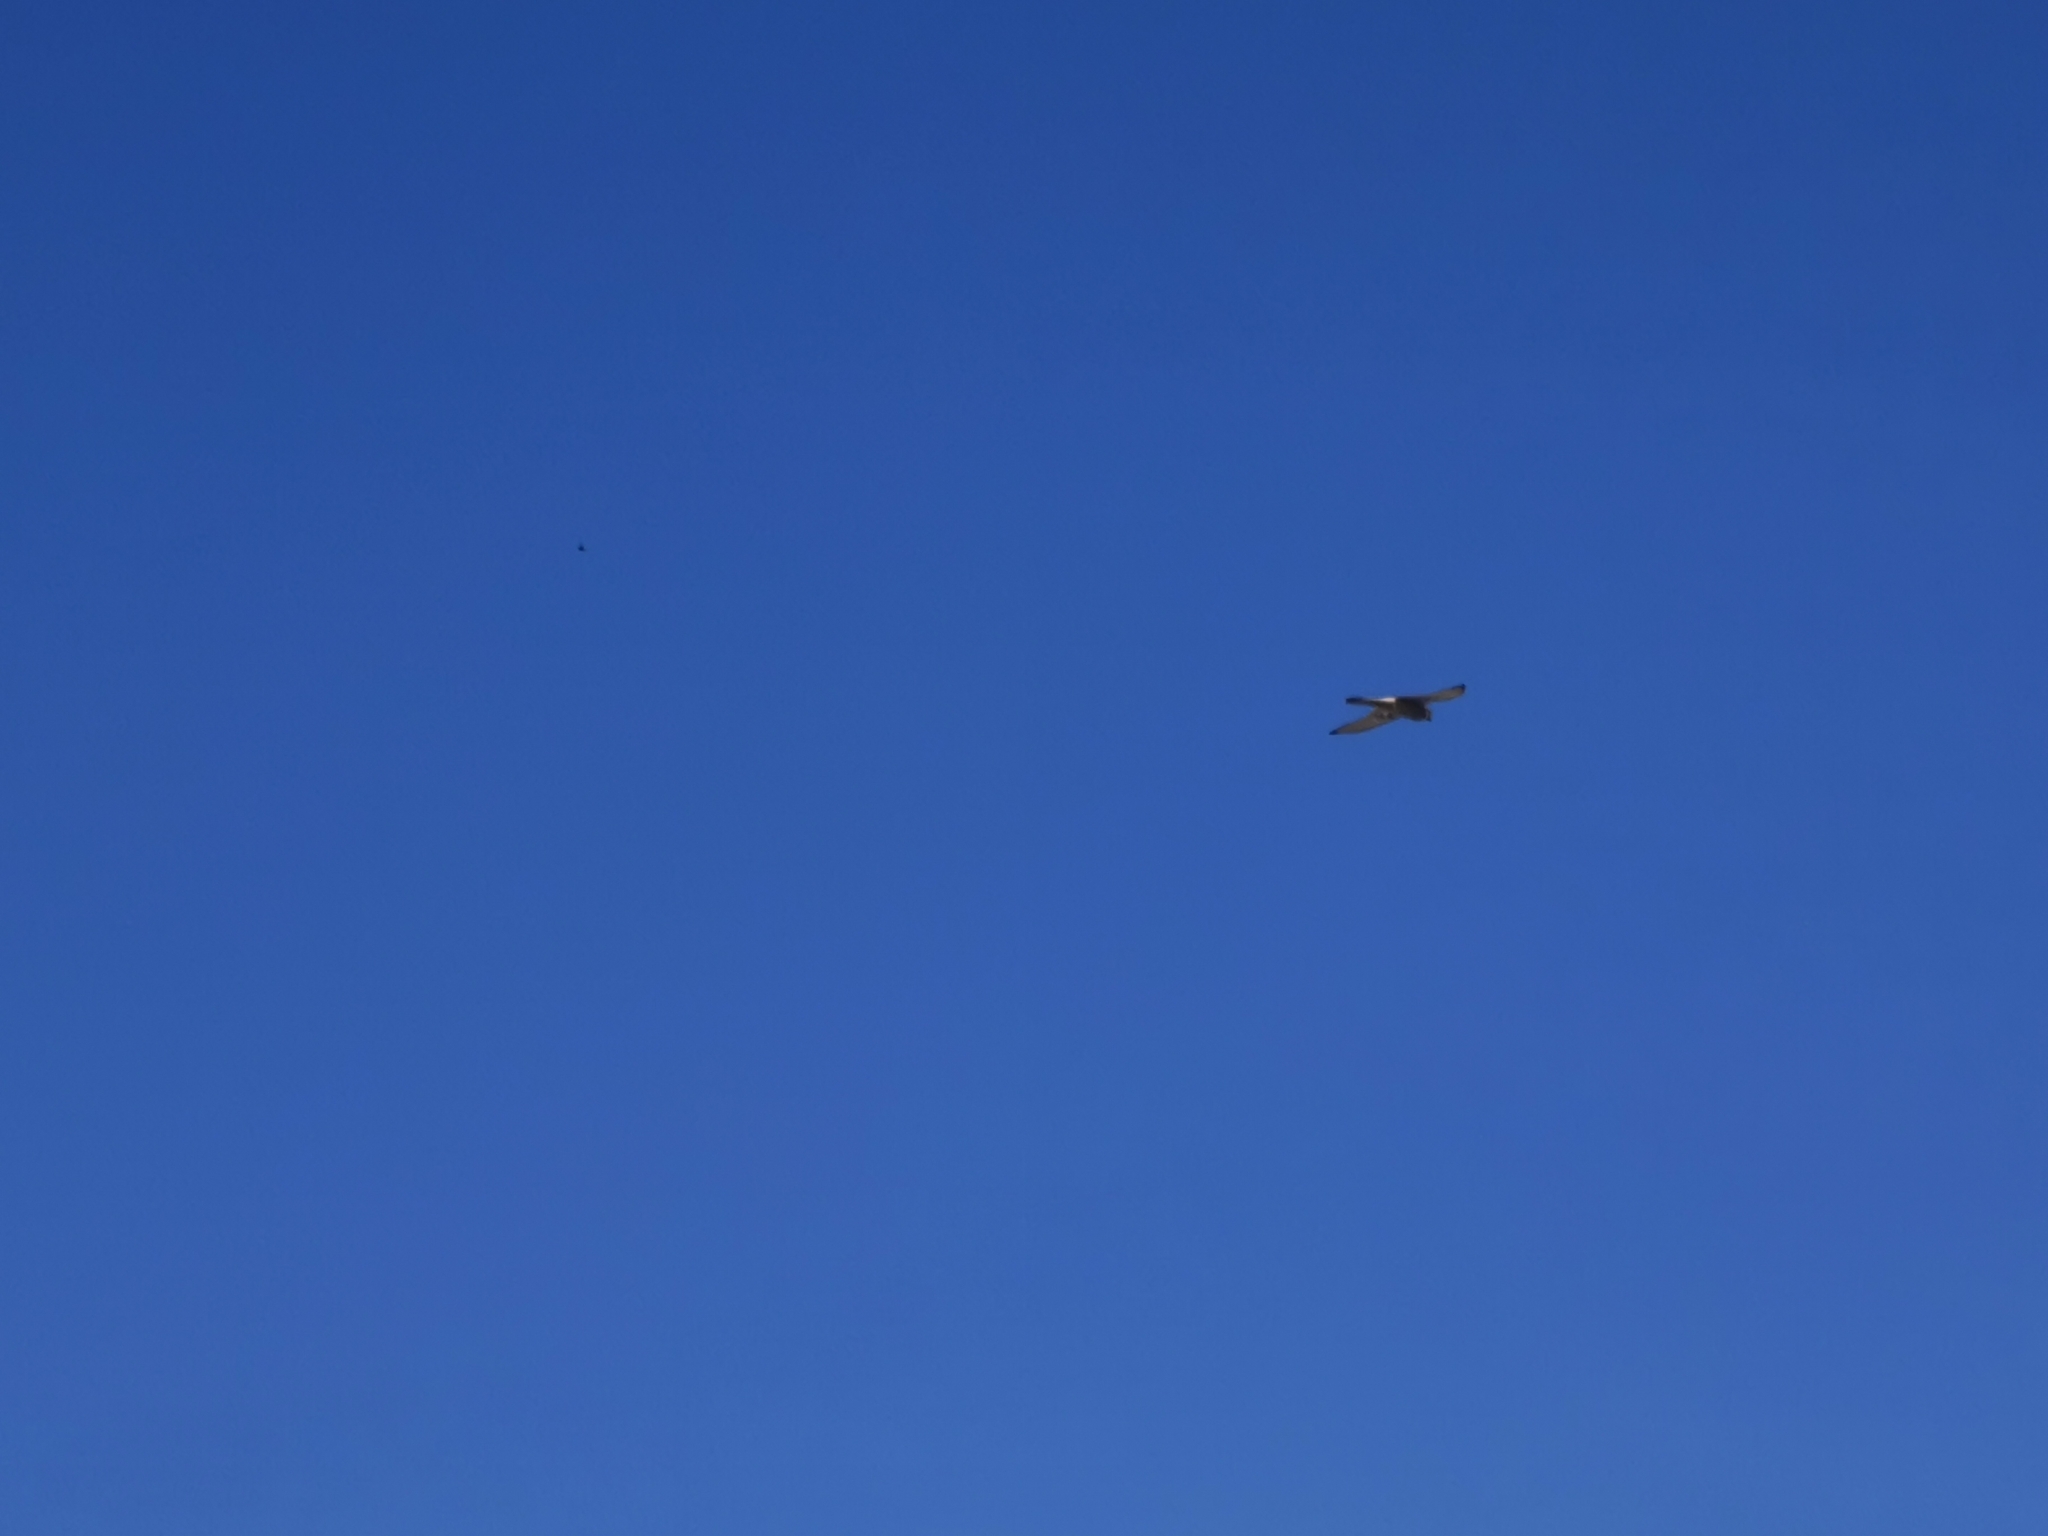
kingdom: Animalia
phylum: Chordata
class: Aves
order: Falconiformes
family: Falconidae
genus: Falco
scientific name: Falco tinnunculus
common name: Common kestrel
